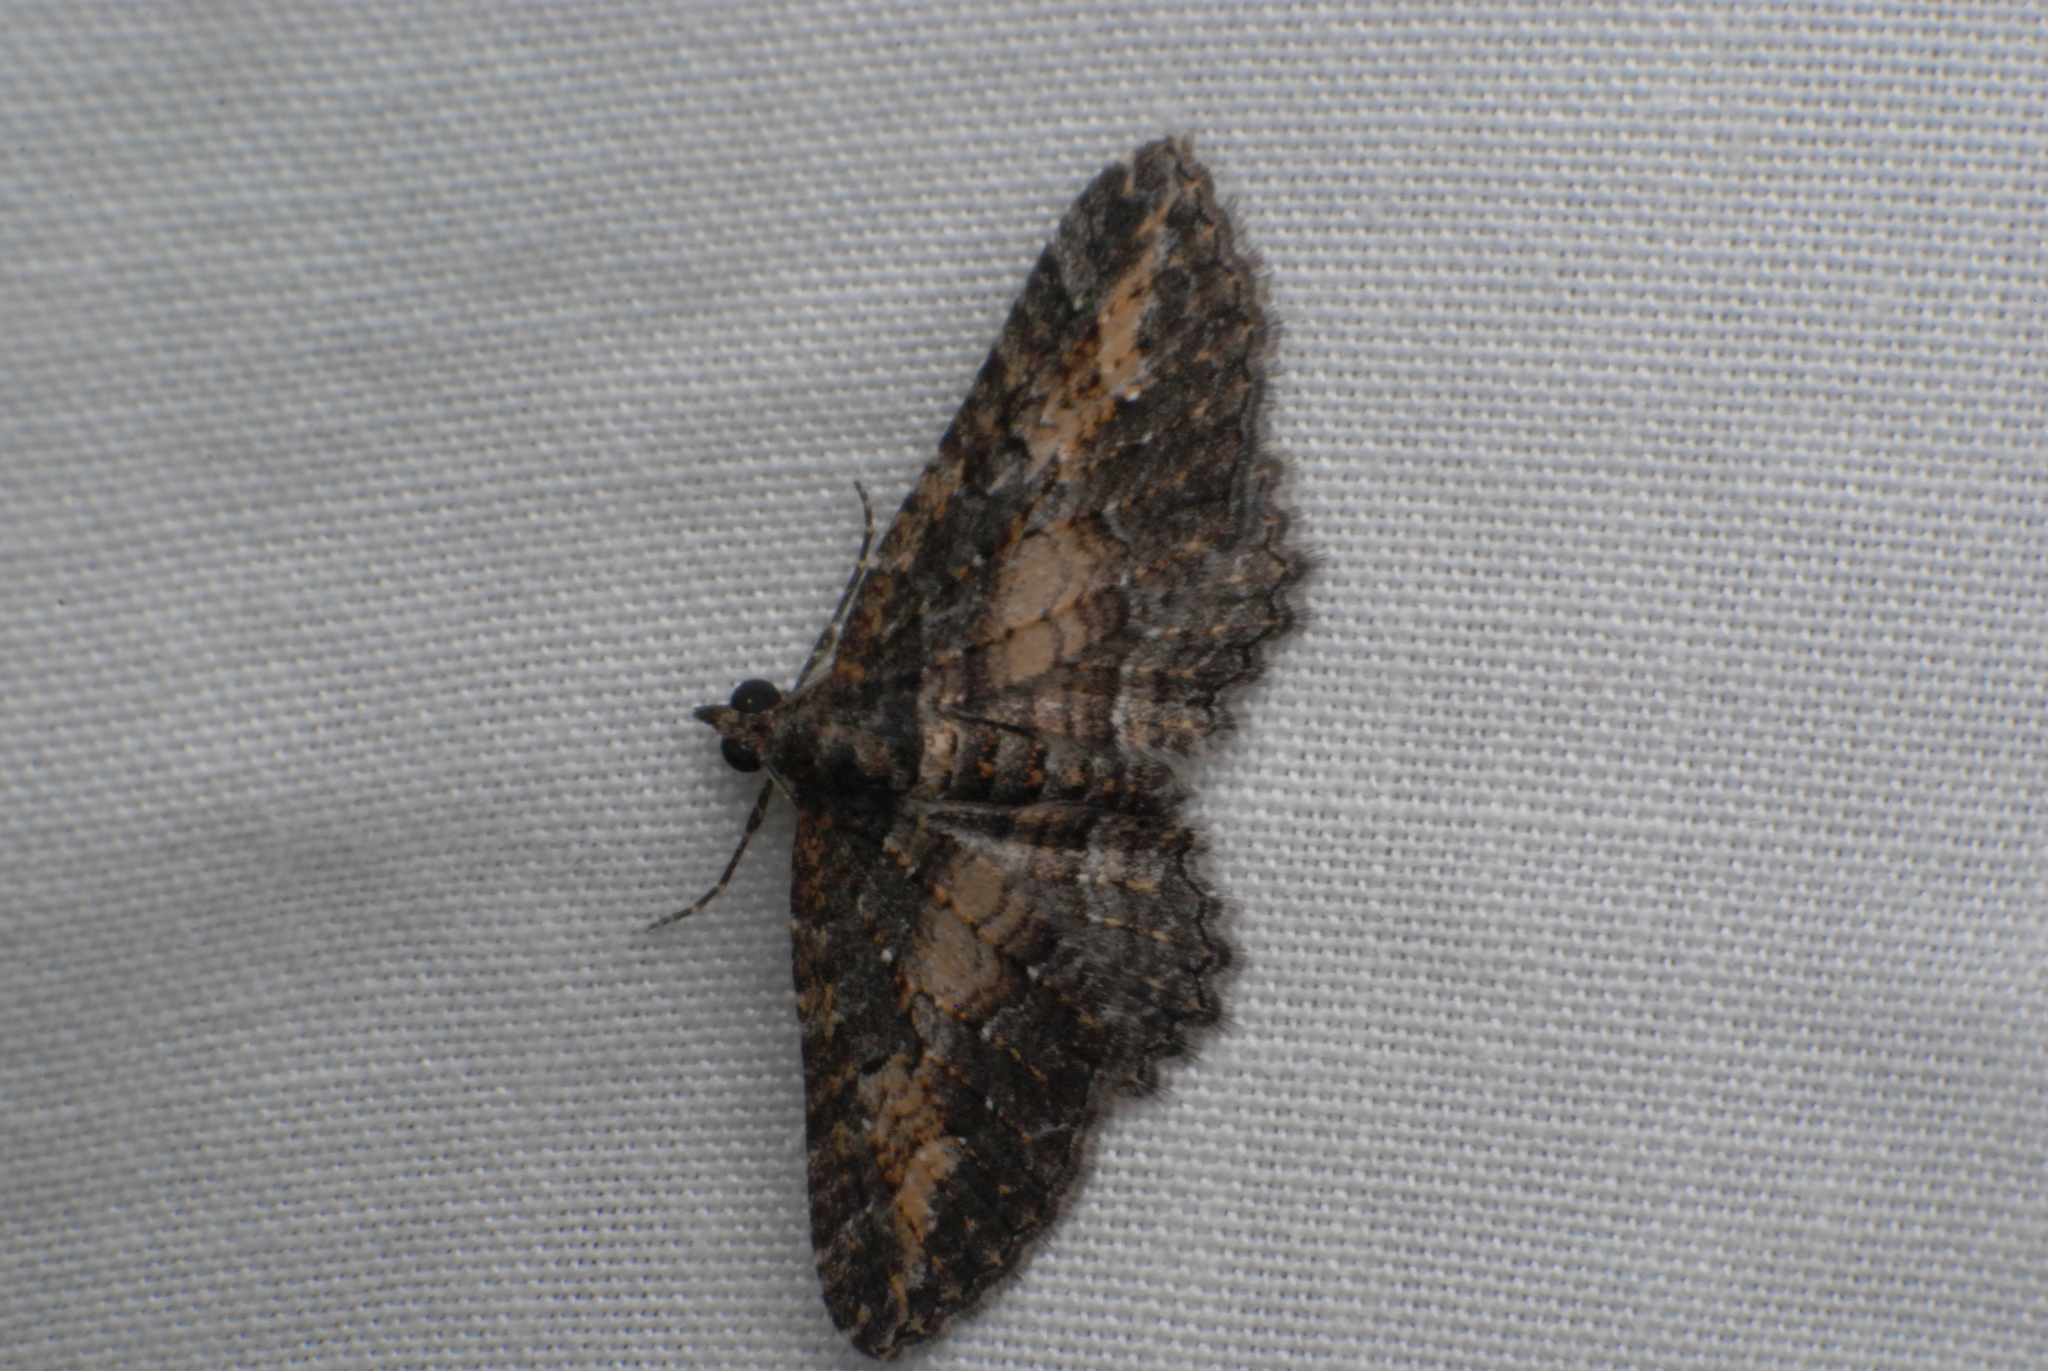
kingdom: Animalia
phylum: Arthropoda
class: Insecta
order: Lepidoptera
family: Geometridae
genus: Eupithecia
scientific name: Eupithecia Eucymatoge scotodes
